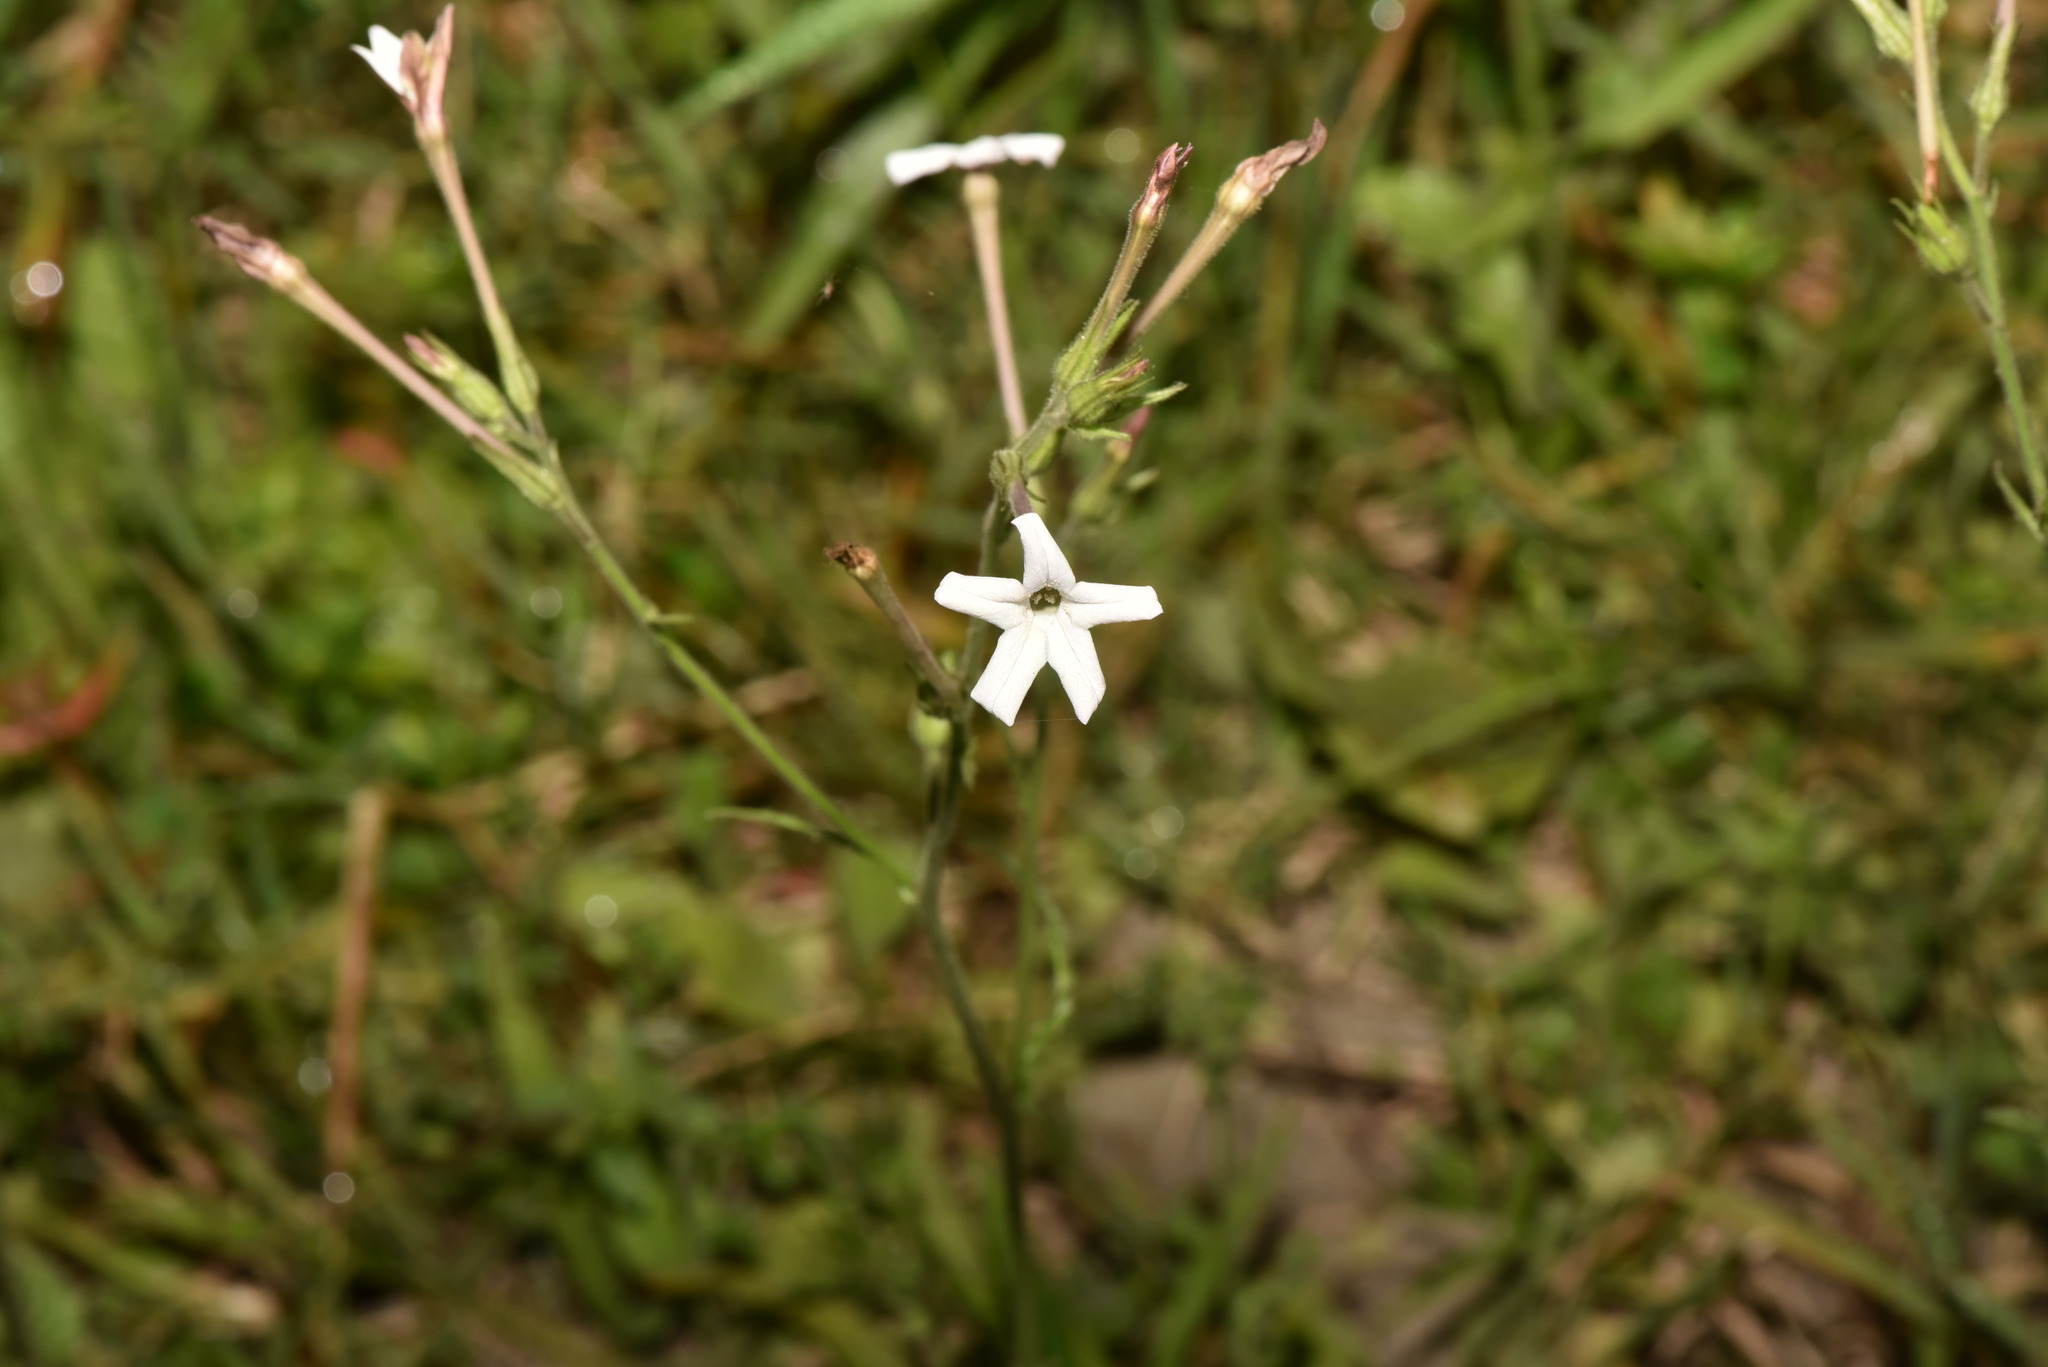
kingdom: Plantae
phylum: Tracheophyta
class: Magnoliopsida
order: Solanales
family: Solanaceae
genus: Nicotiana
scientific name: Nicotiana plumbaginifolia
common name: Tex-mex tobacco
